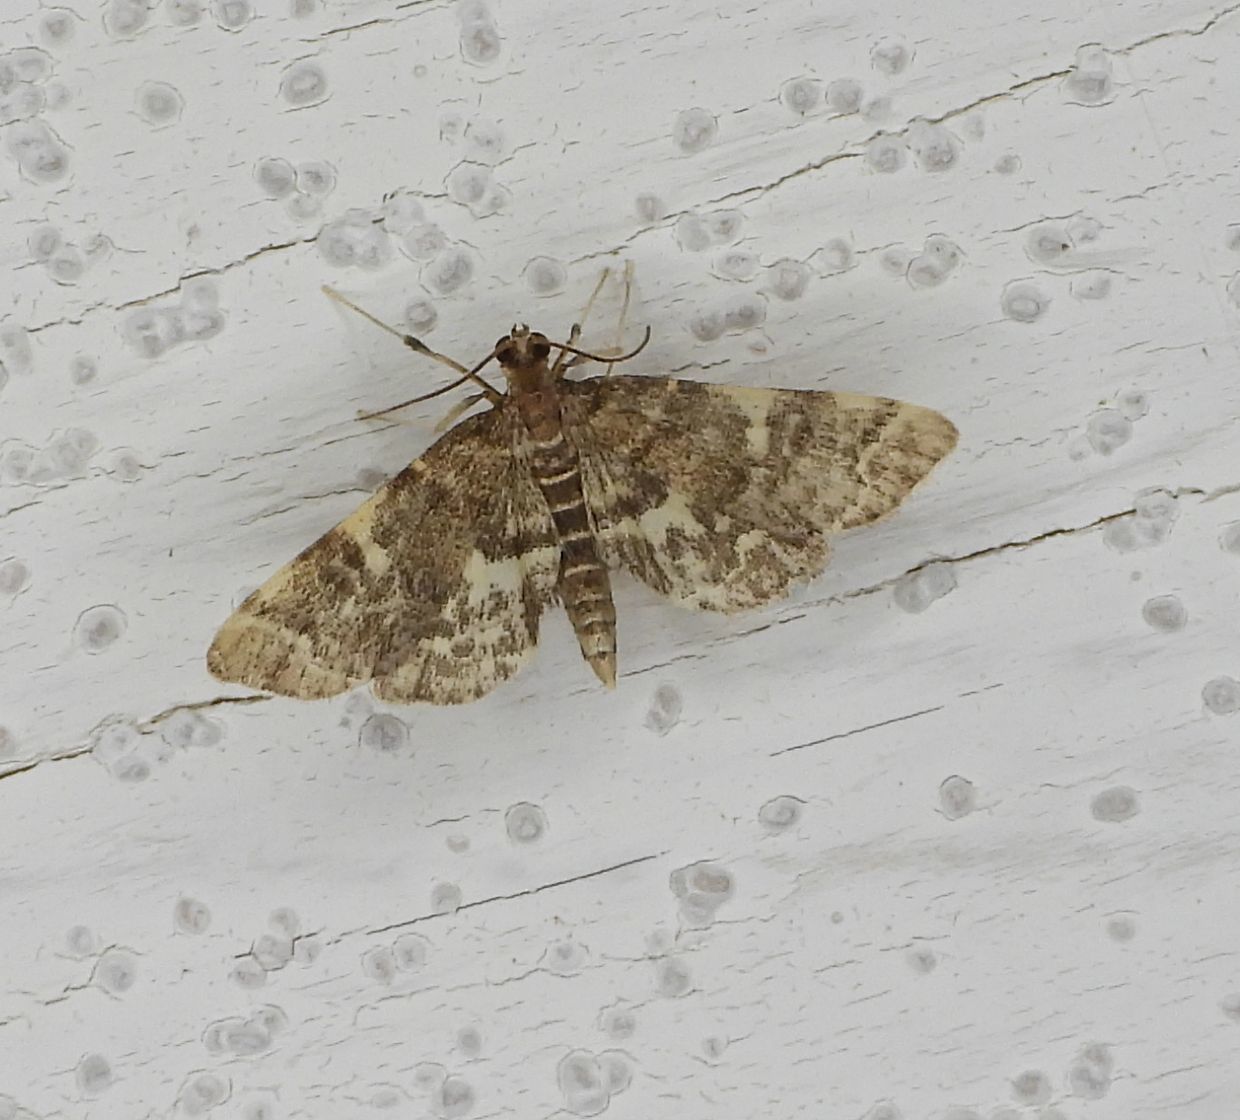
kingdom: Animalia
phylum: Arthropoda
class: Insecta
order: Lepidoptera
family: Crambidae
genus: Anageshna
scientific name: Anageshna primordialis
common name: Yellow-spotted webworm moth
